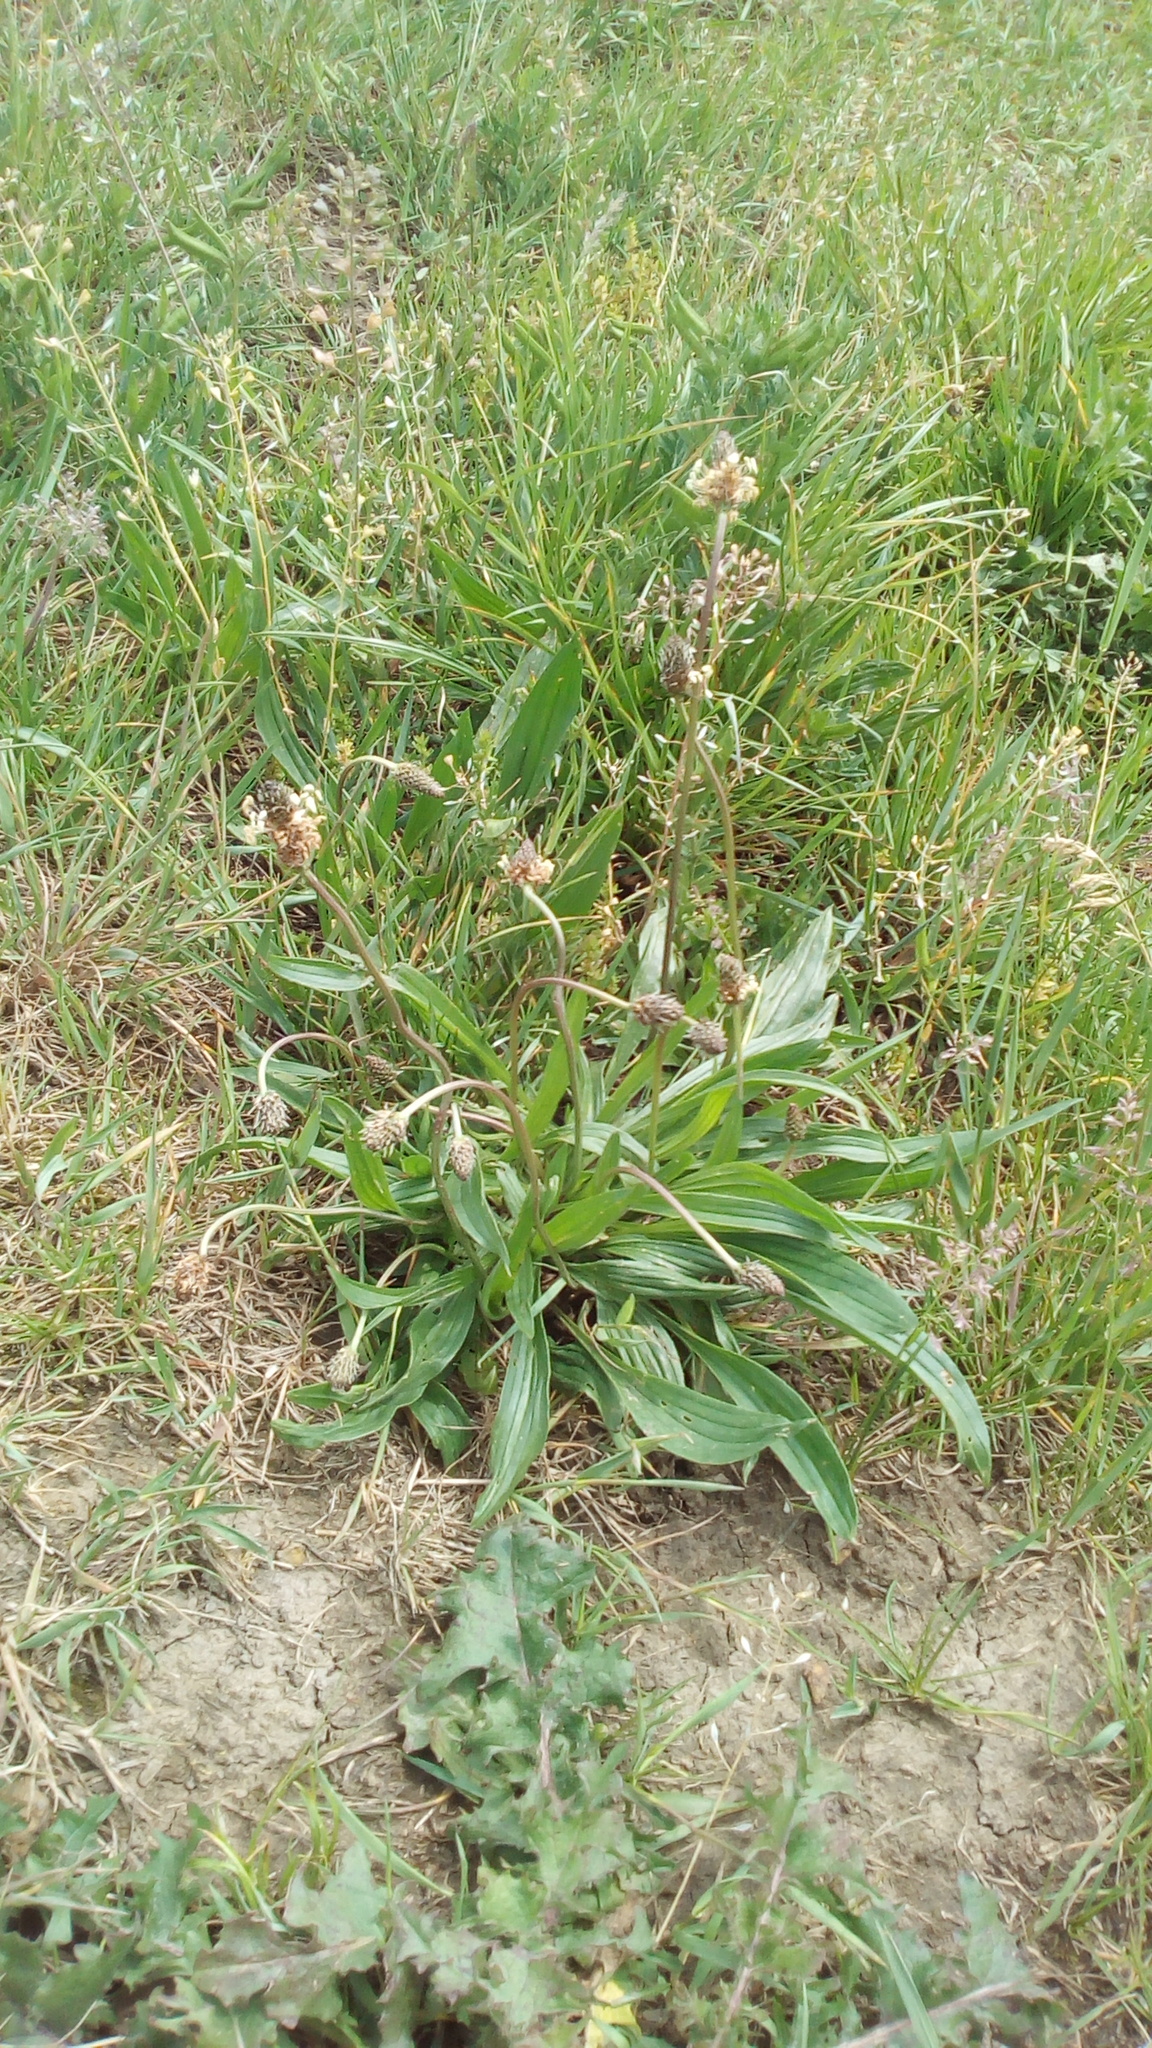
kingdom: Plantae
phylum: Tracheophyta
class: Magnoliopsida
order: Lamiales
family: Plantaginaceae
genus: Plantago
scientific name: Plantago lanceolata
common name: Ribwort plantain
